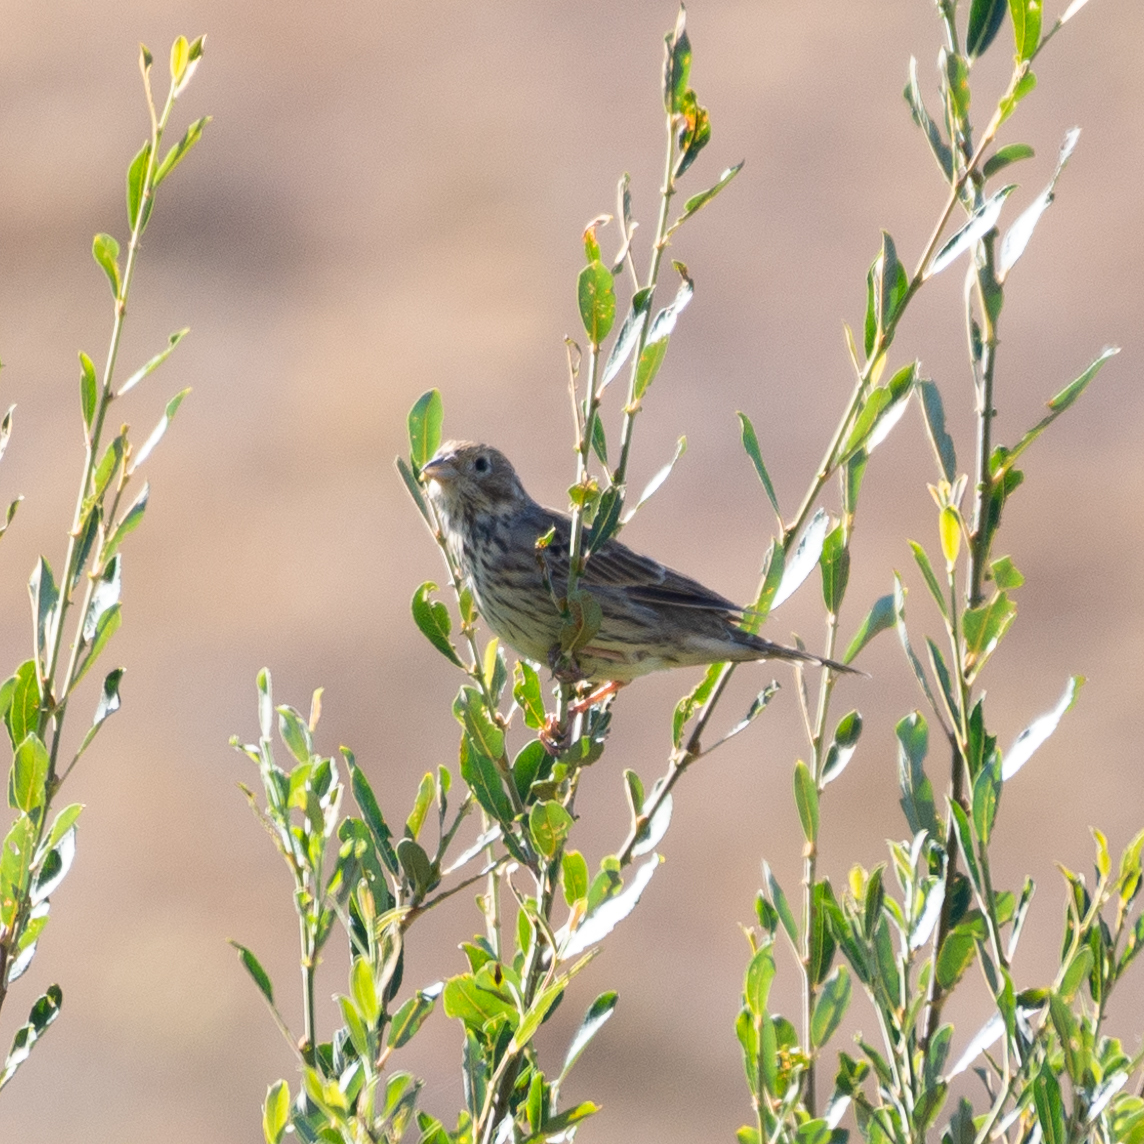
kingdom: Animalia
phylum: Chordata
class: Aves
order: Passeriformes
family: Emberizidae
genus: Emberiza
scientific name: Emberiza calandra
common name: Corn bunting
